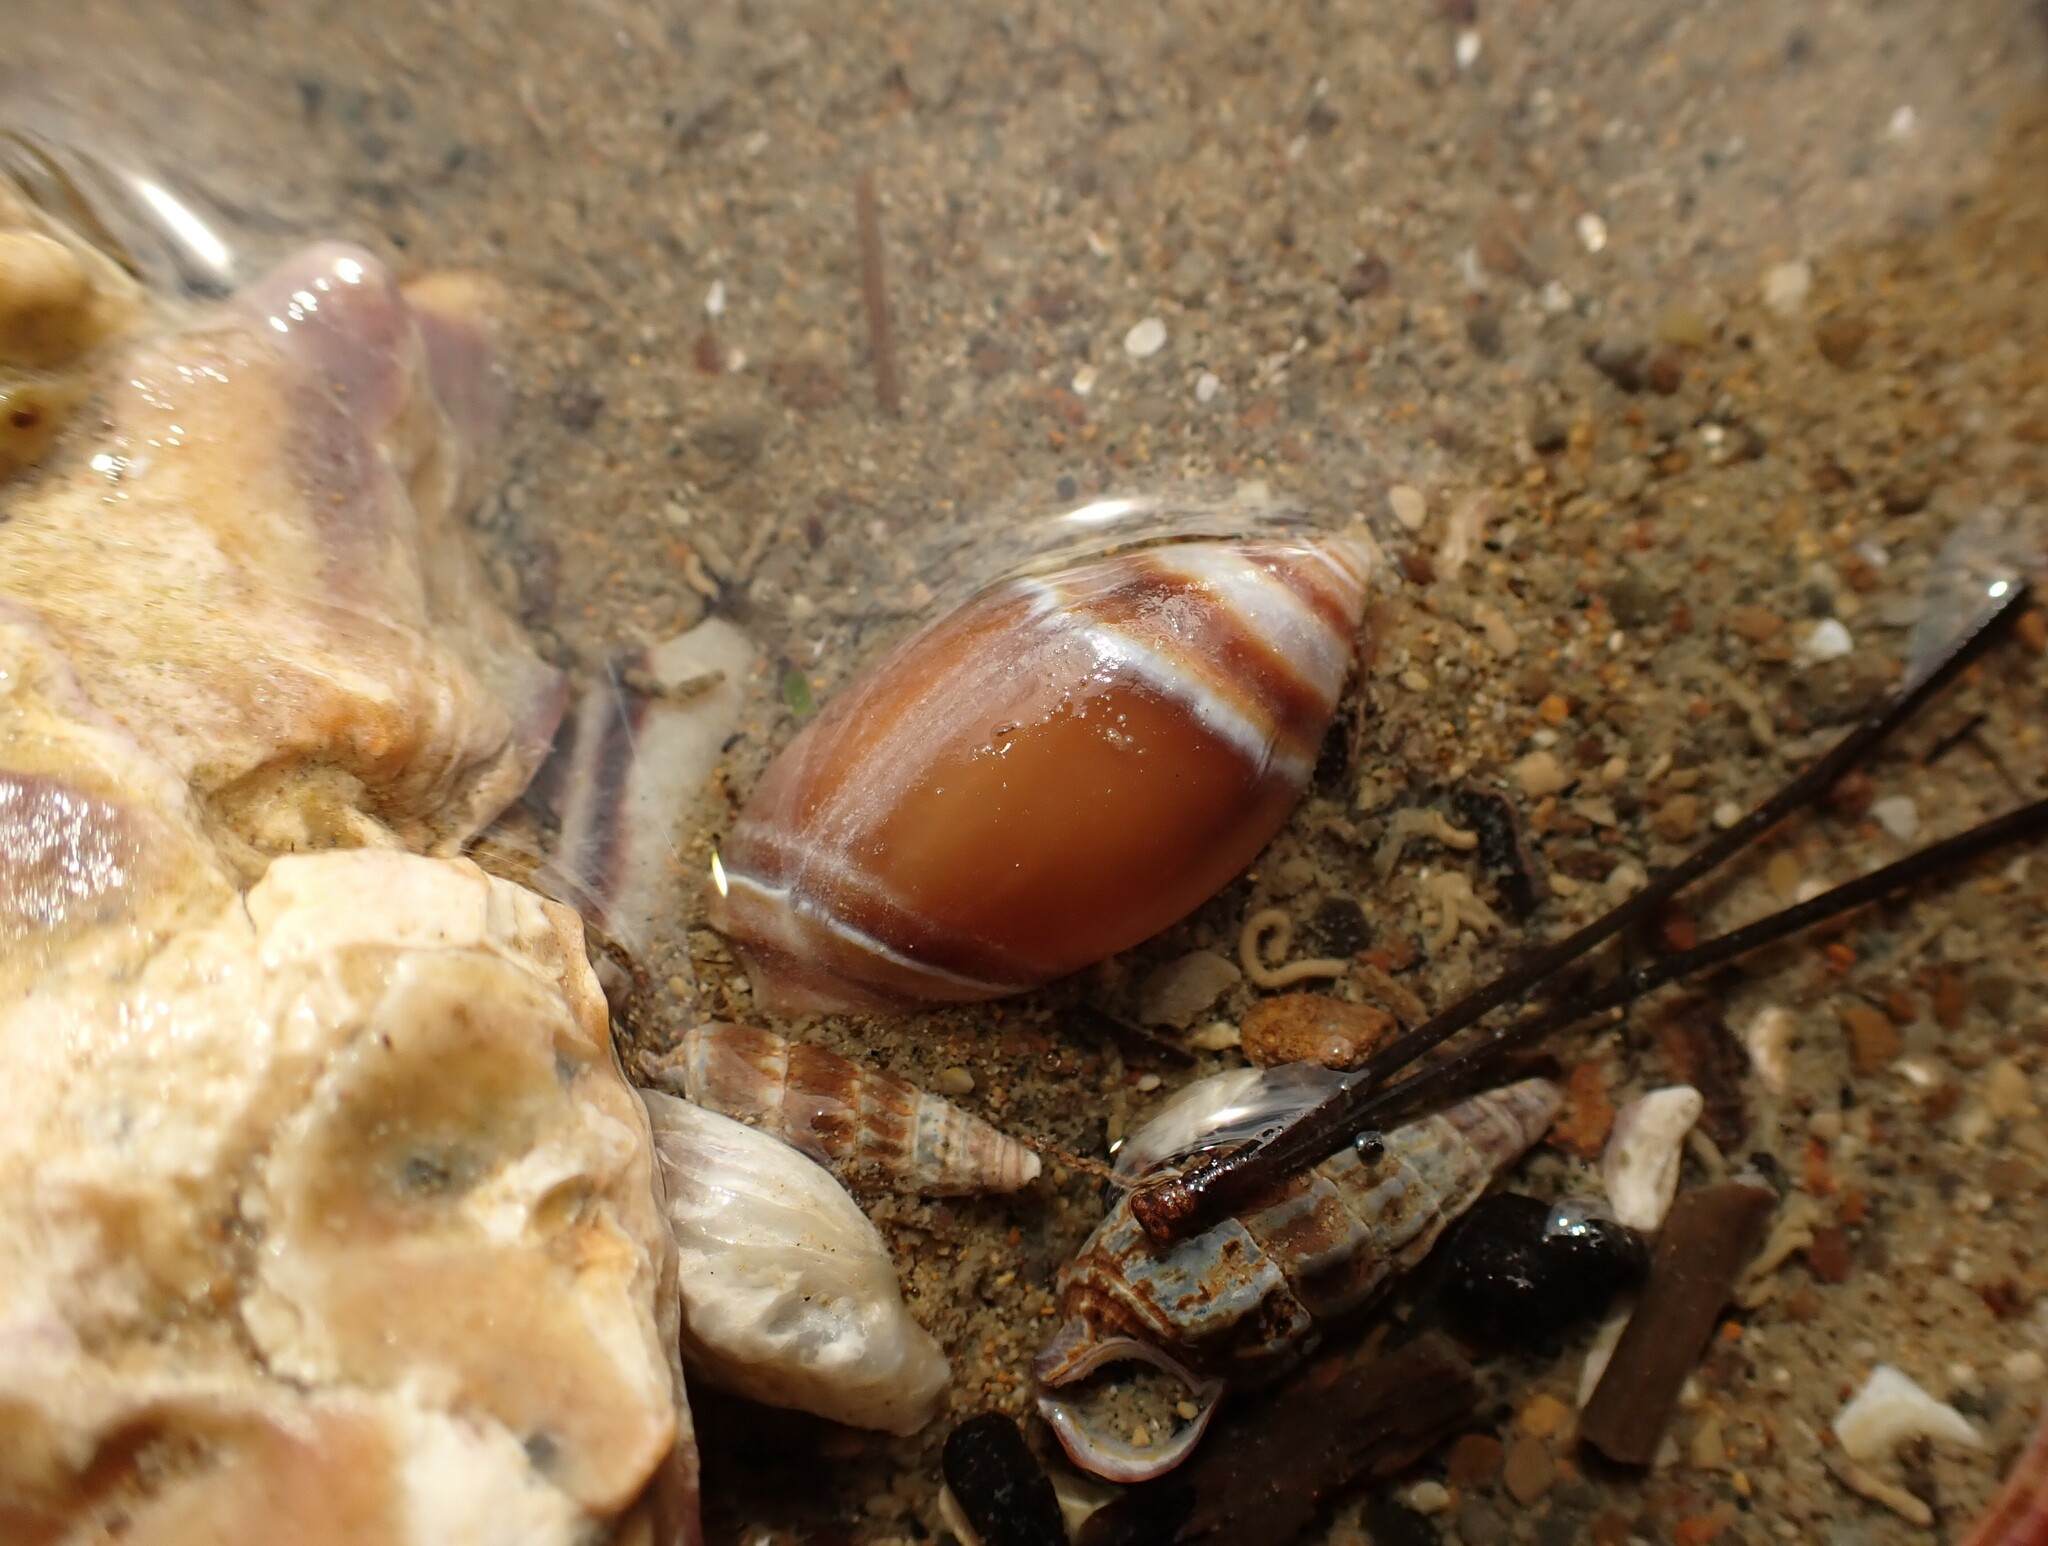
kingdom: Animalia
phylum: Mollusca
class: Gastropoda
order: Neogastropoda
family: Ancillariidae
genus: Amalda
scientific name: Amalda australis
